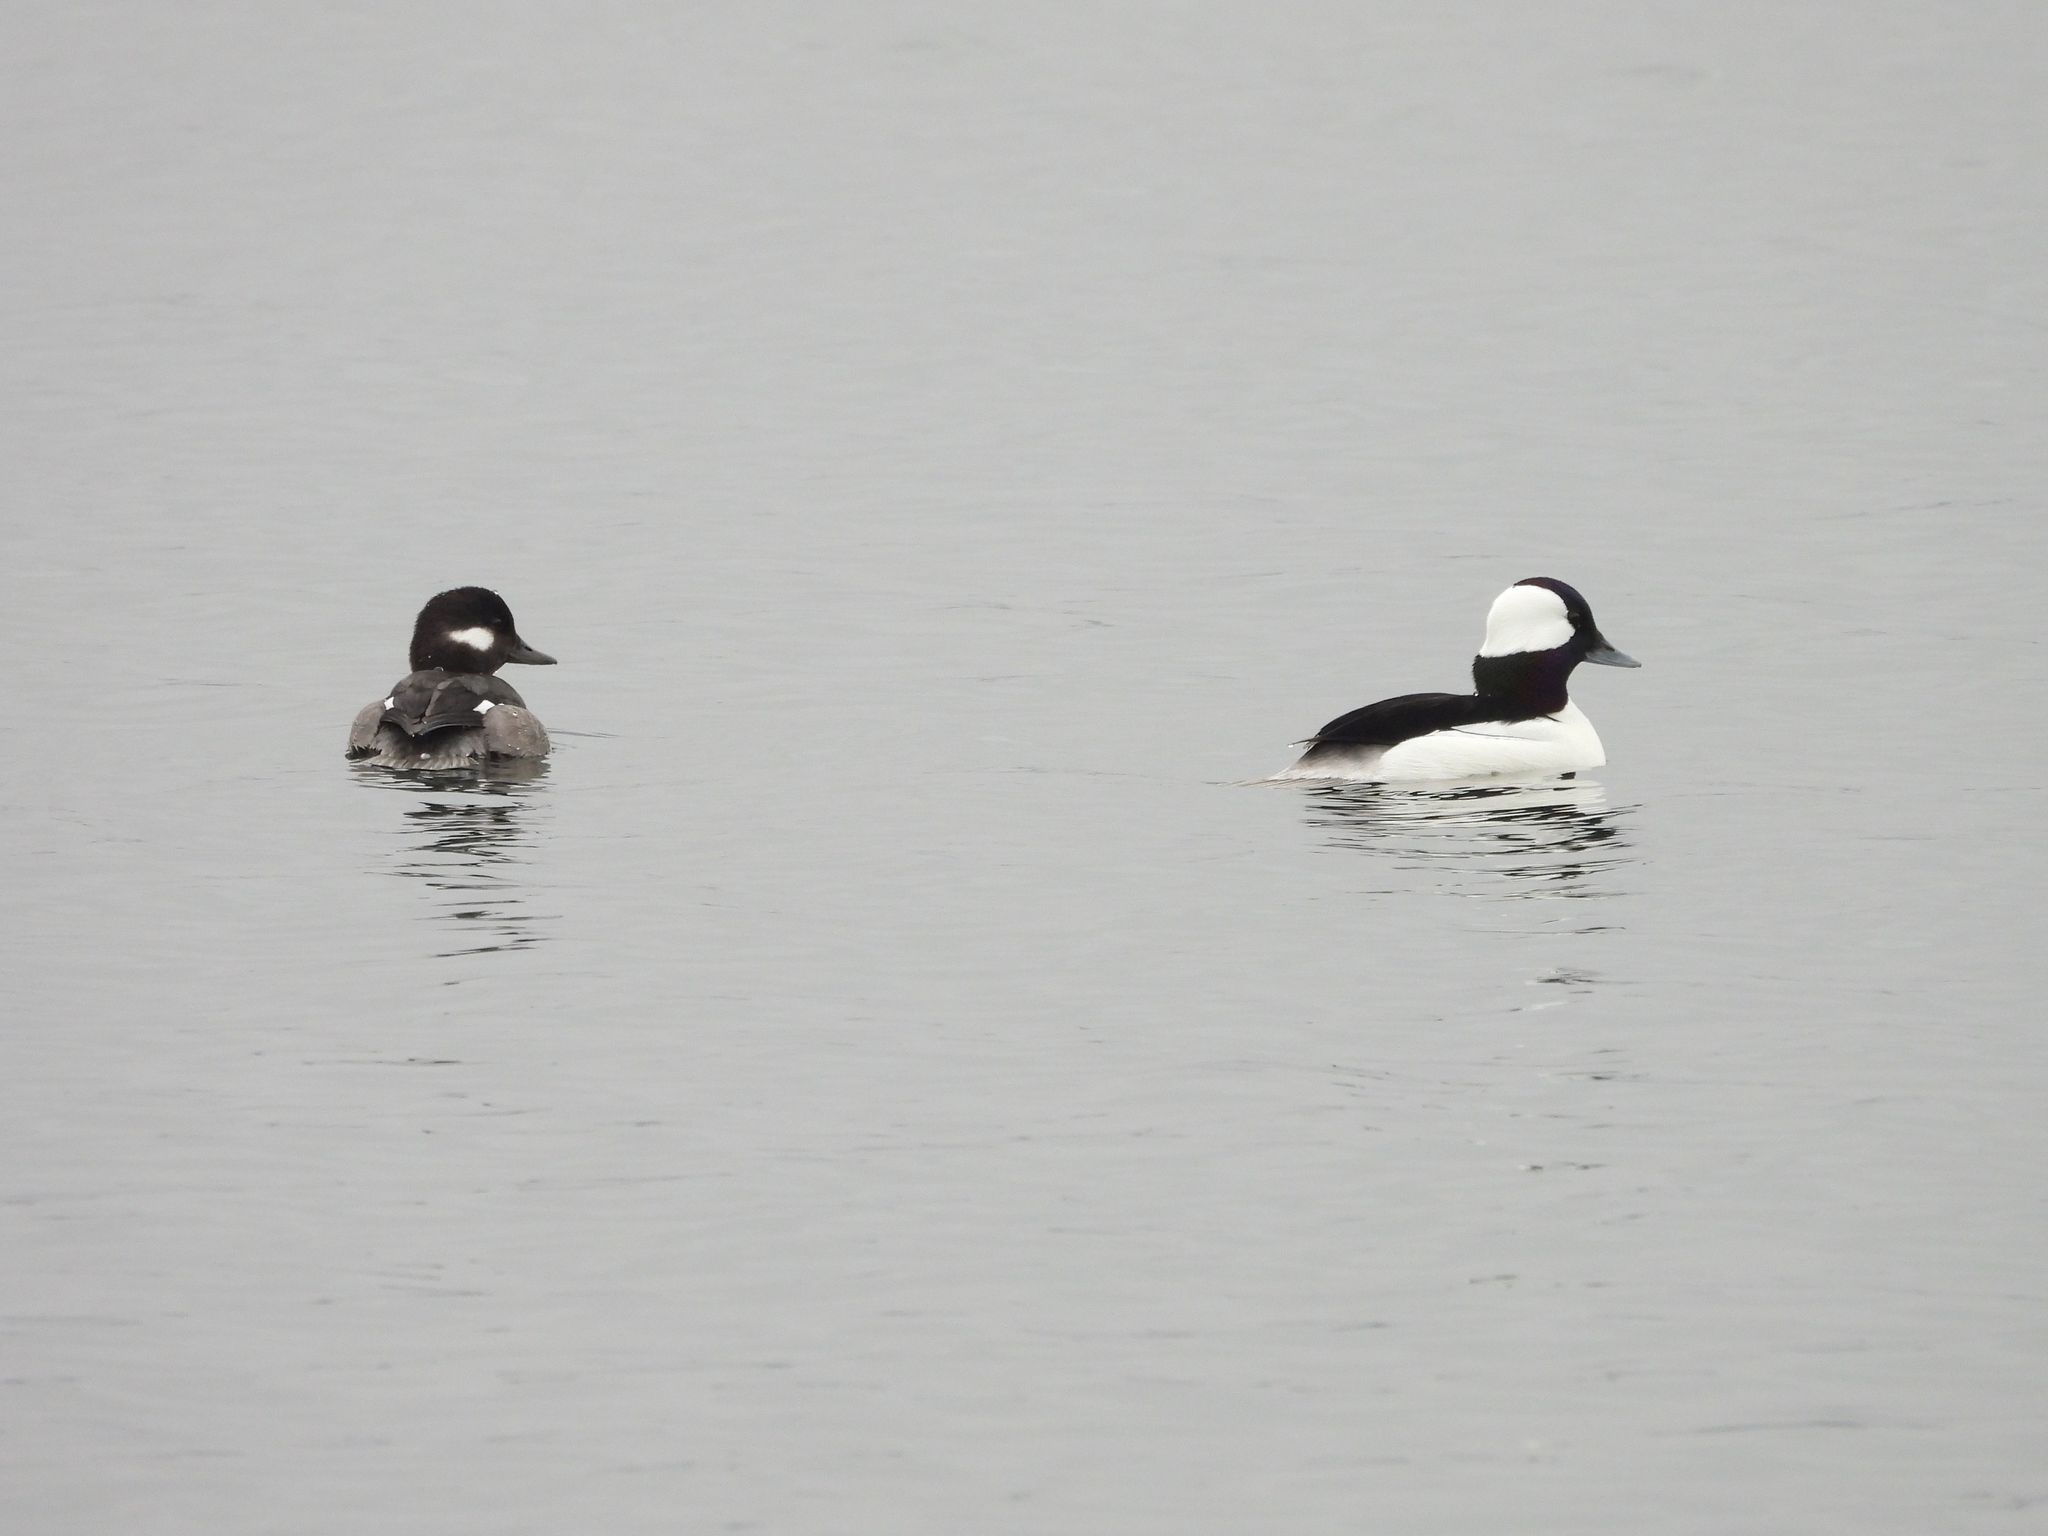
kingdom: Animalia
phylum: Chordata
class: Aves
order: Anseriformes
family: Anatidae
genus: Bucephala
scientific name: Bucephala albeola
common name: Bufflehead
